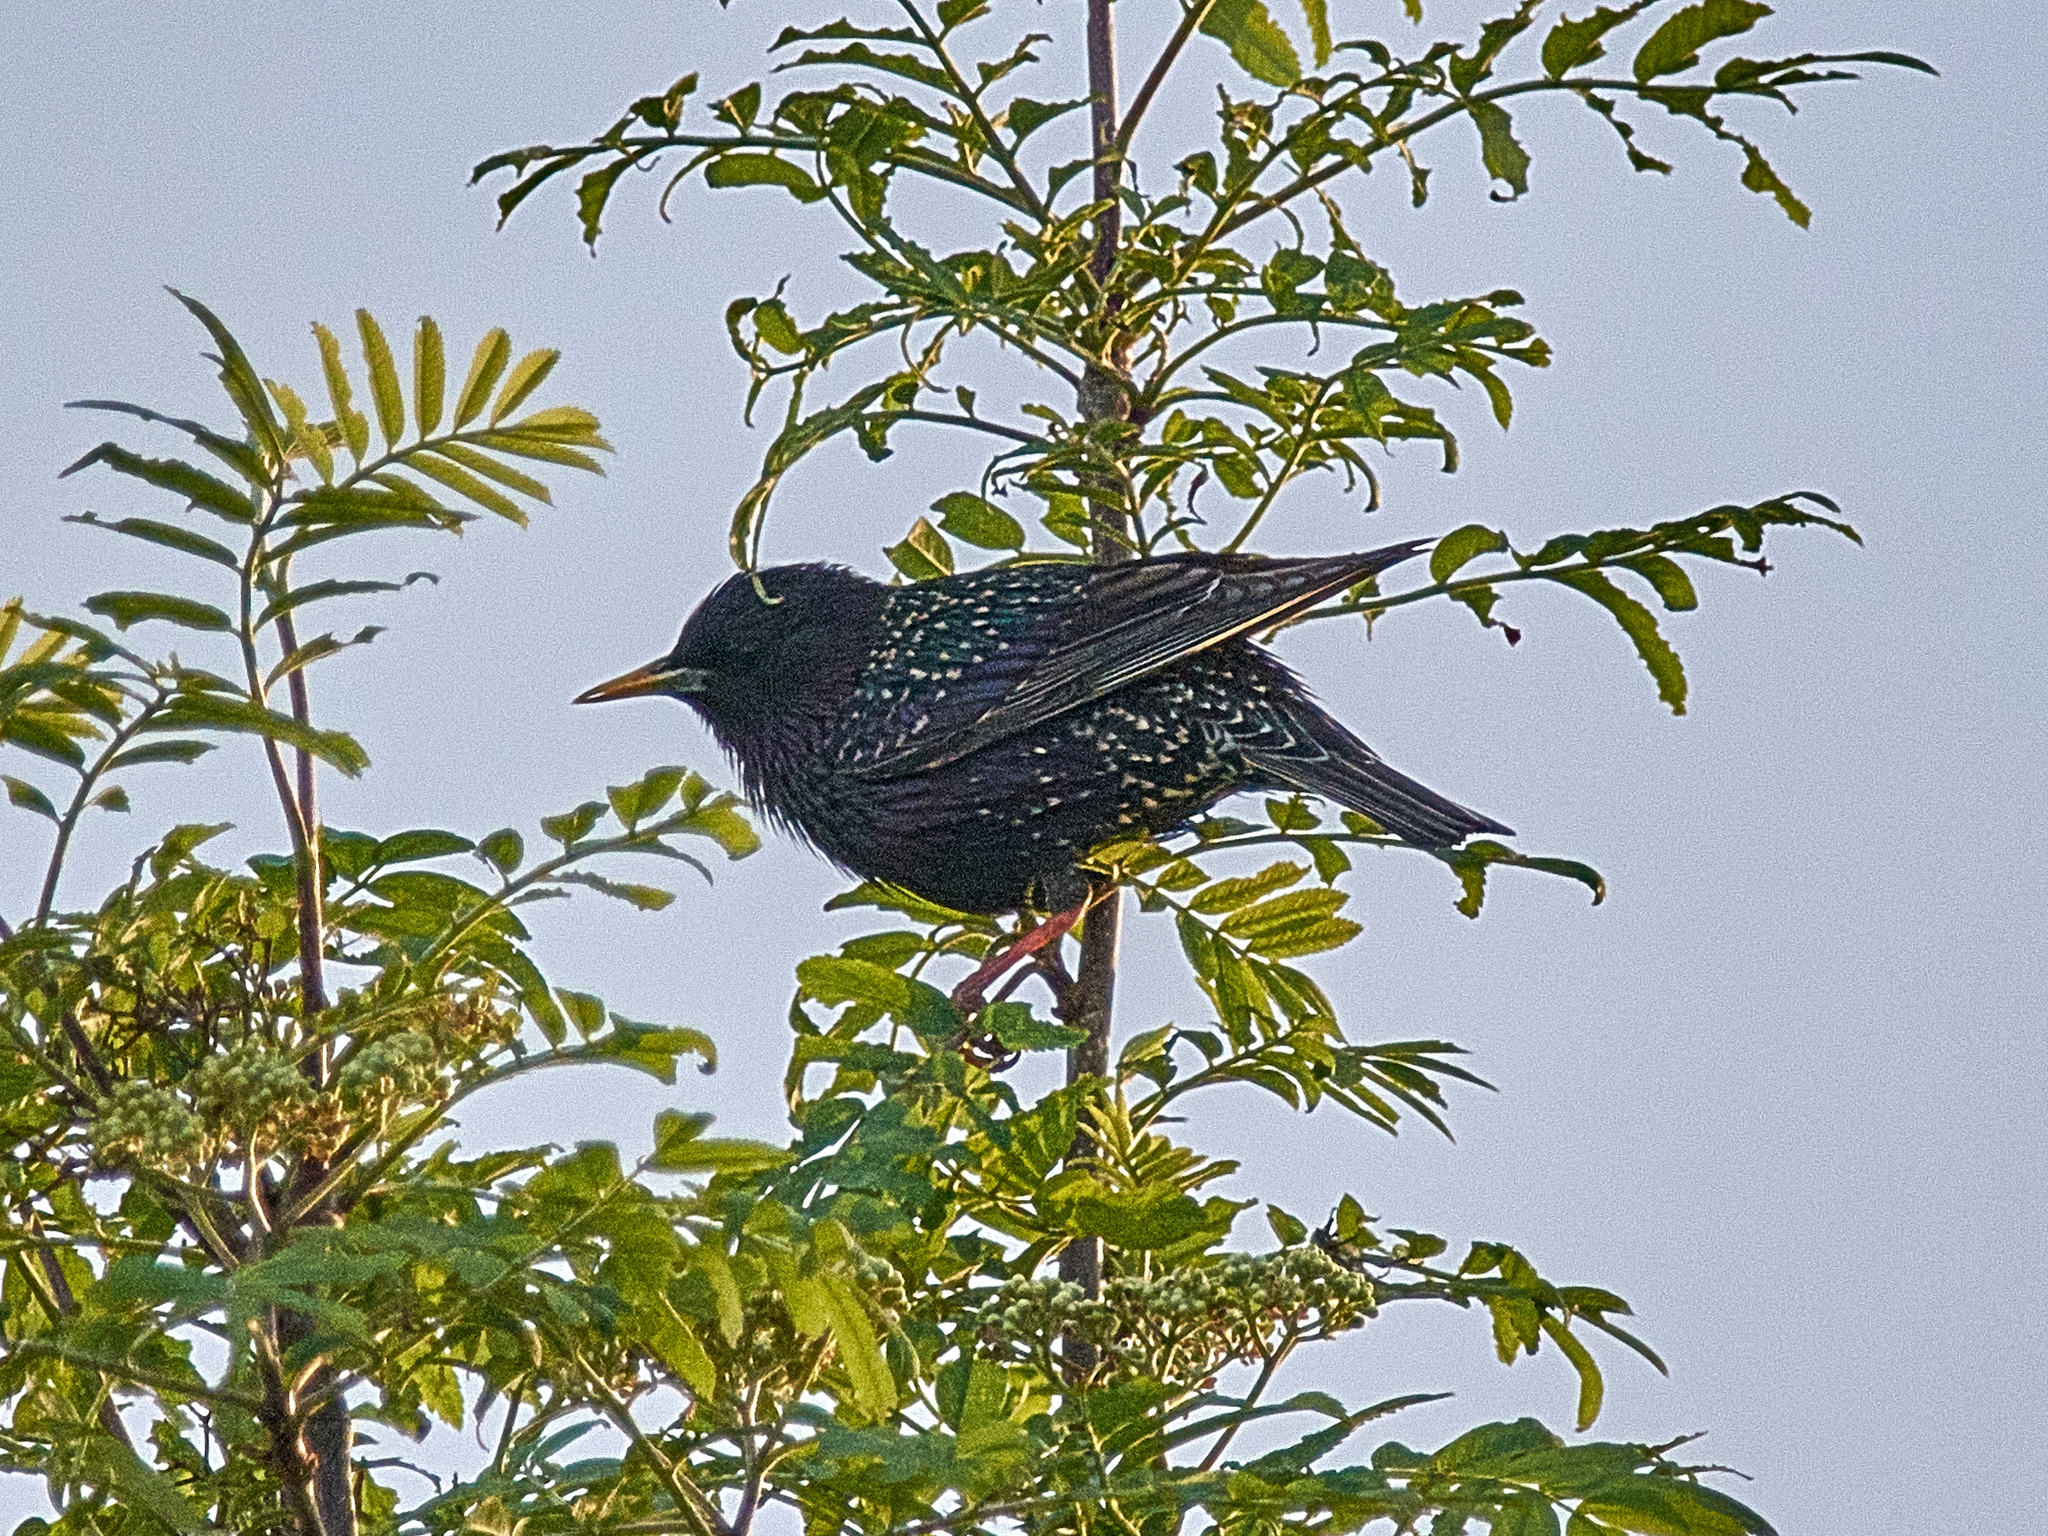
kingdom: Animalia
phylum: Chordata
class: Aves
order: Passeriformes
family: Sturnidae
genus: Sturnus
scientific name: Sturnus vulgaris
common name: Common starling
